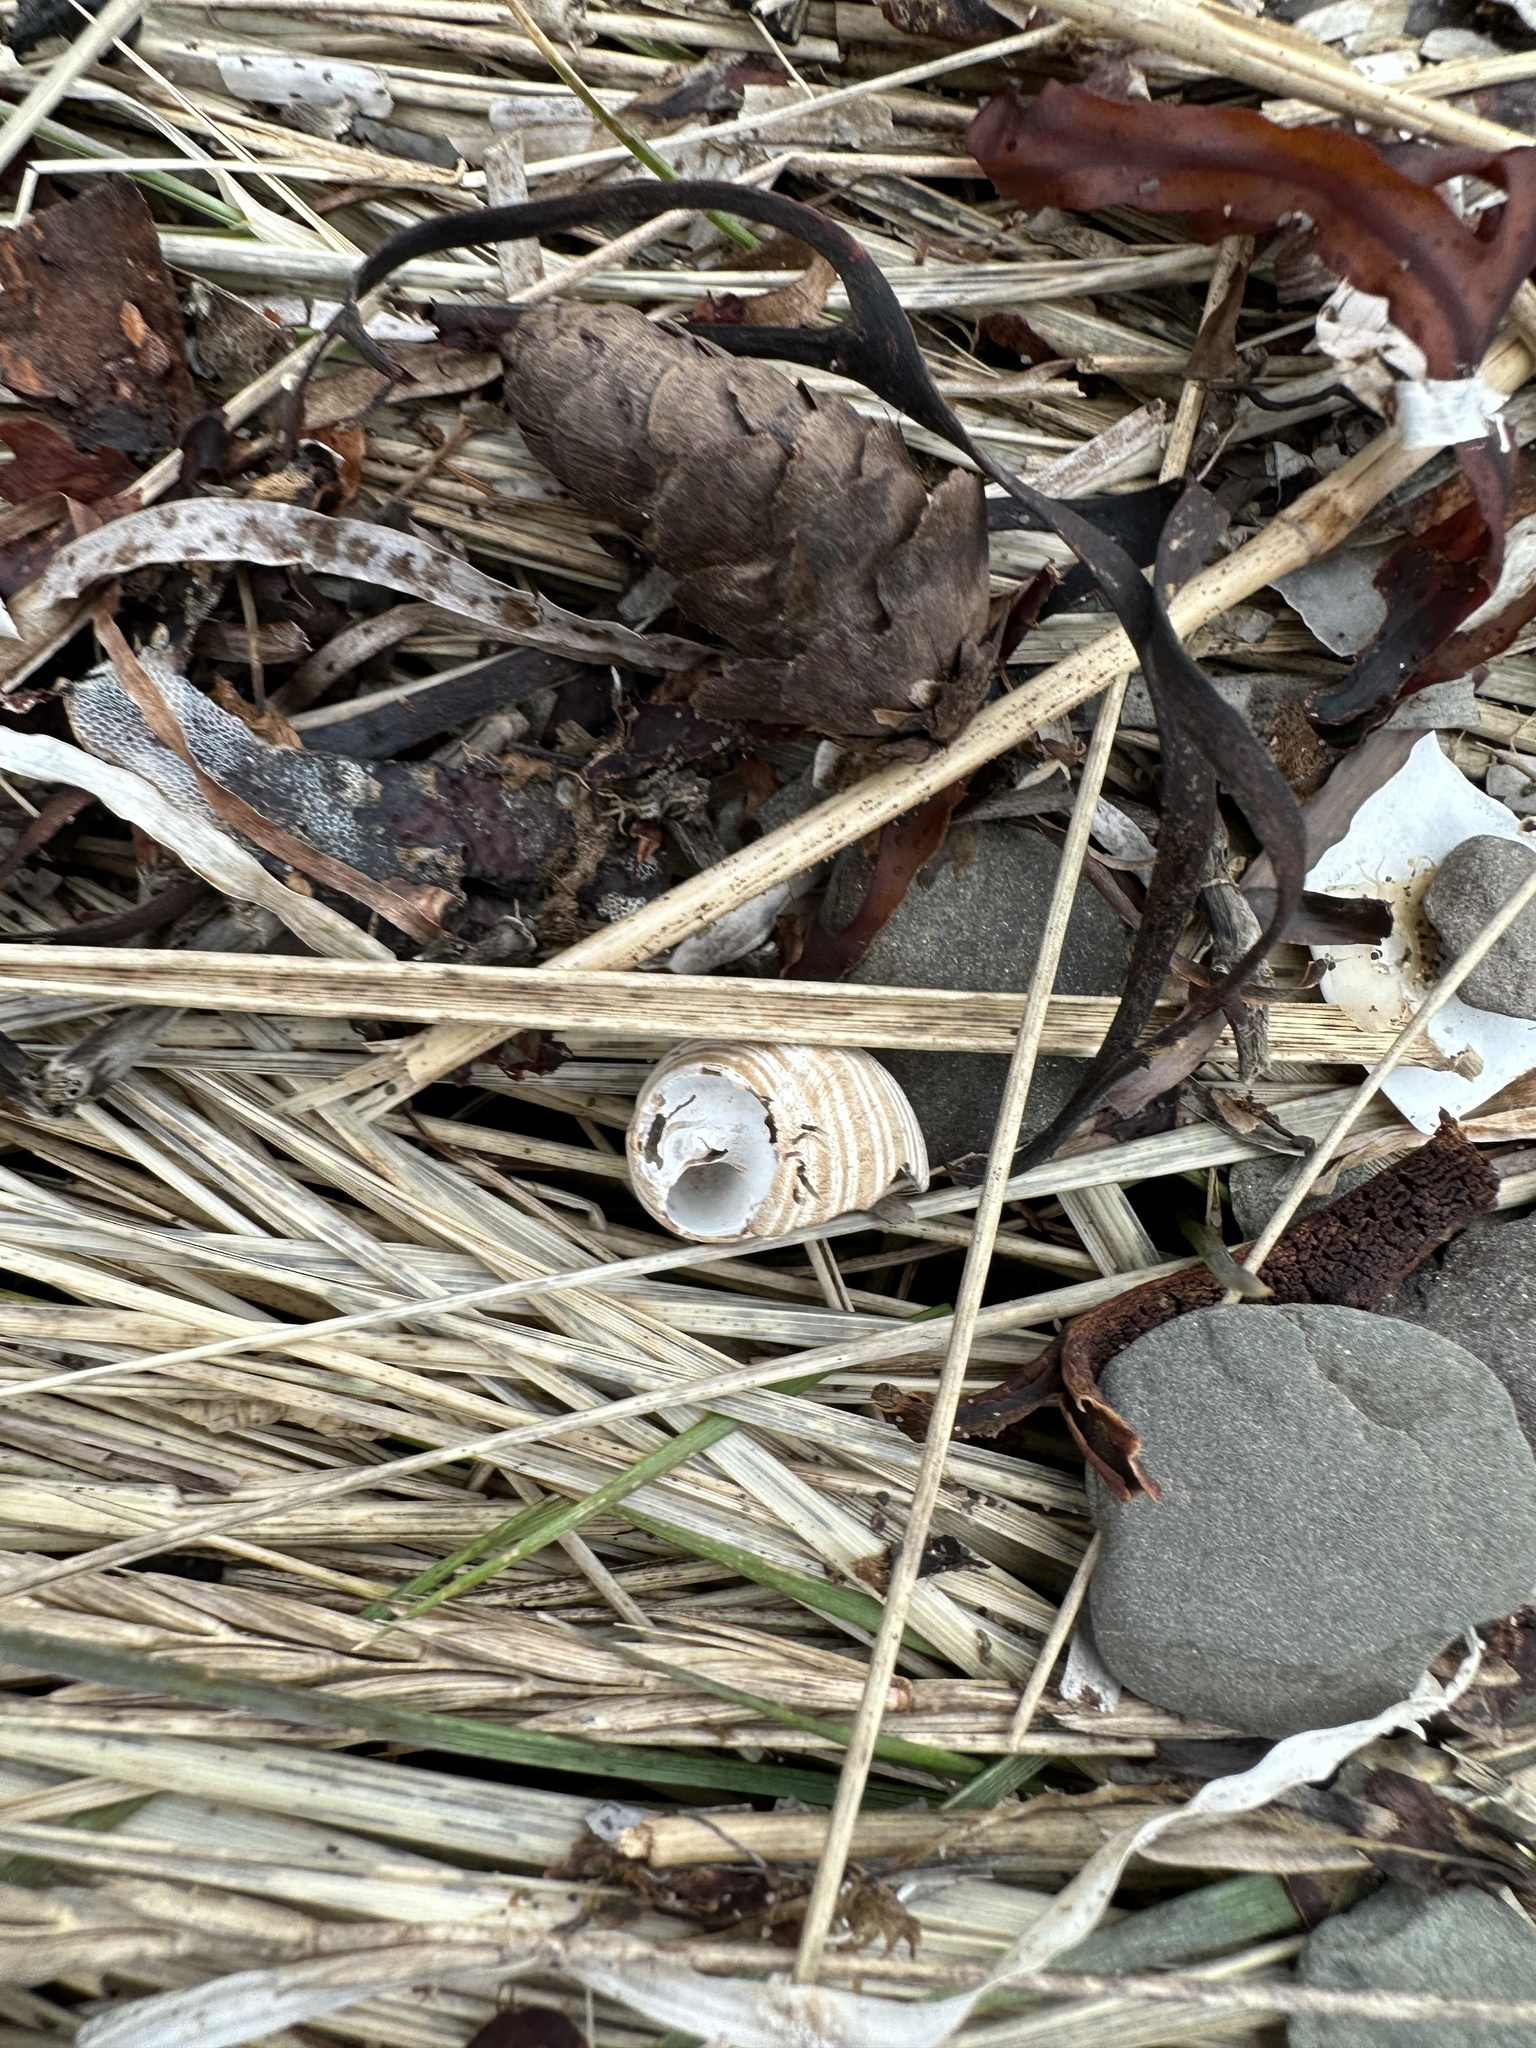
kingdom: Animalia
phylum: Mollusca
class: Gastropoda
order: Littorinimorpha
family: Littorinidae
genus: Littorina
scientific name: Littorina littorea
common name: Common periwinkle
